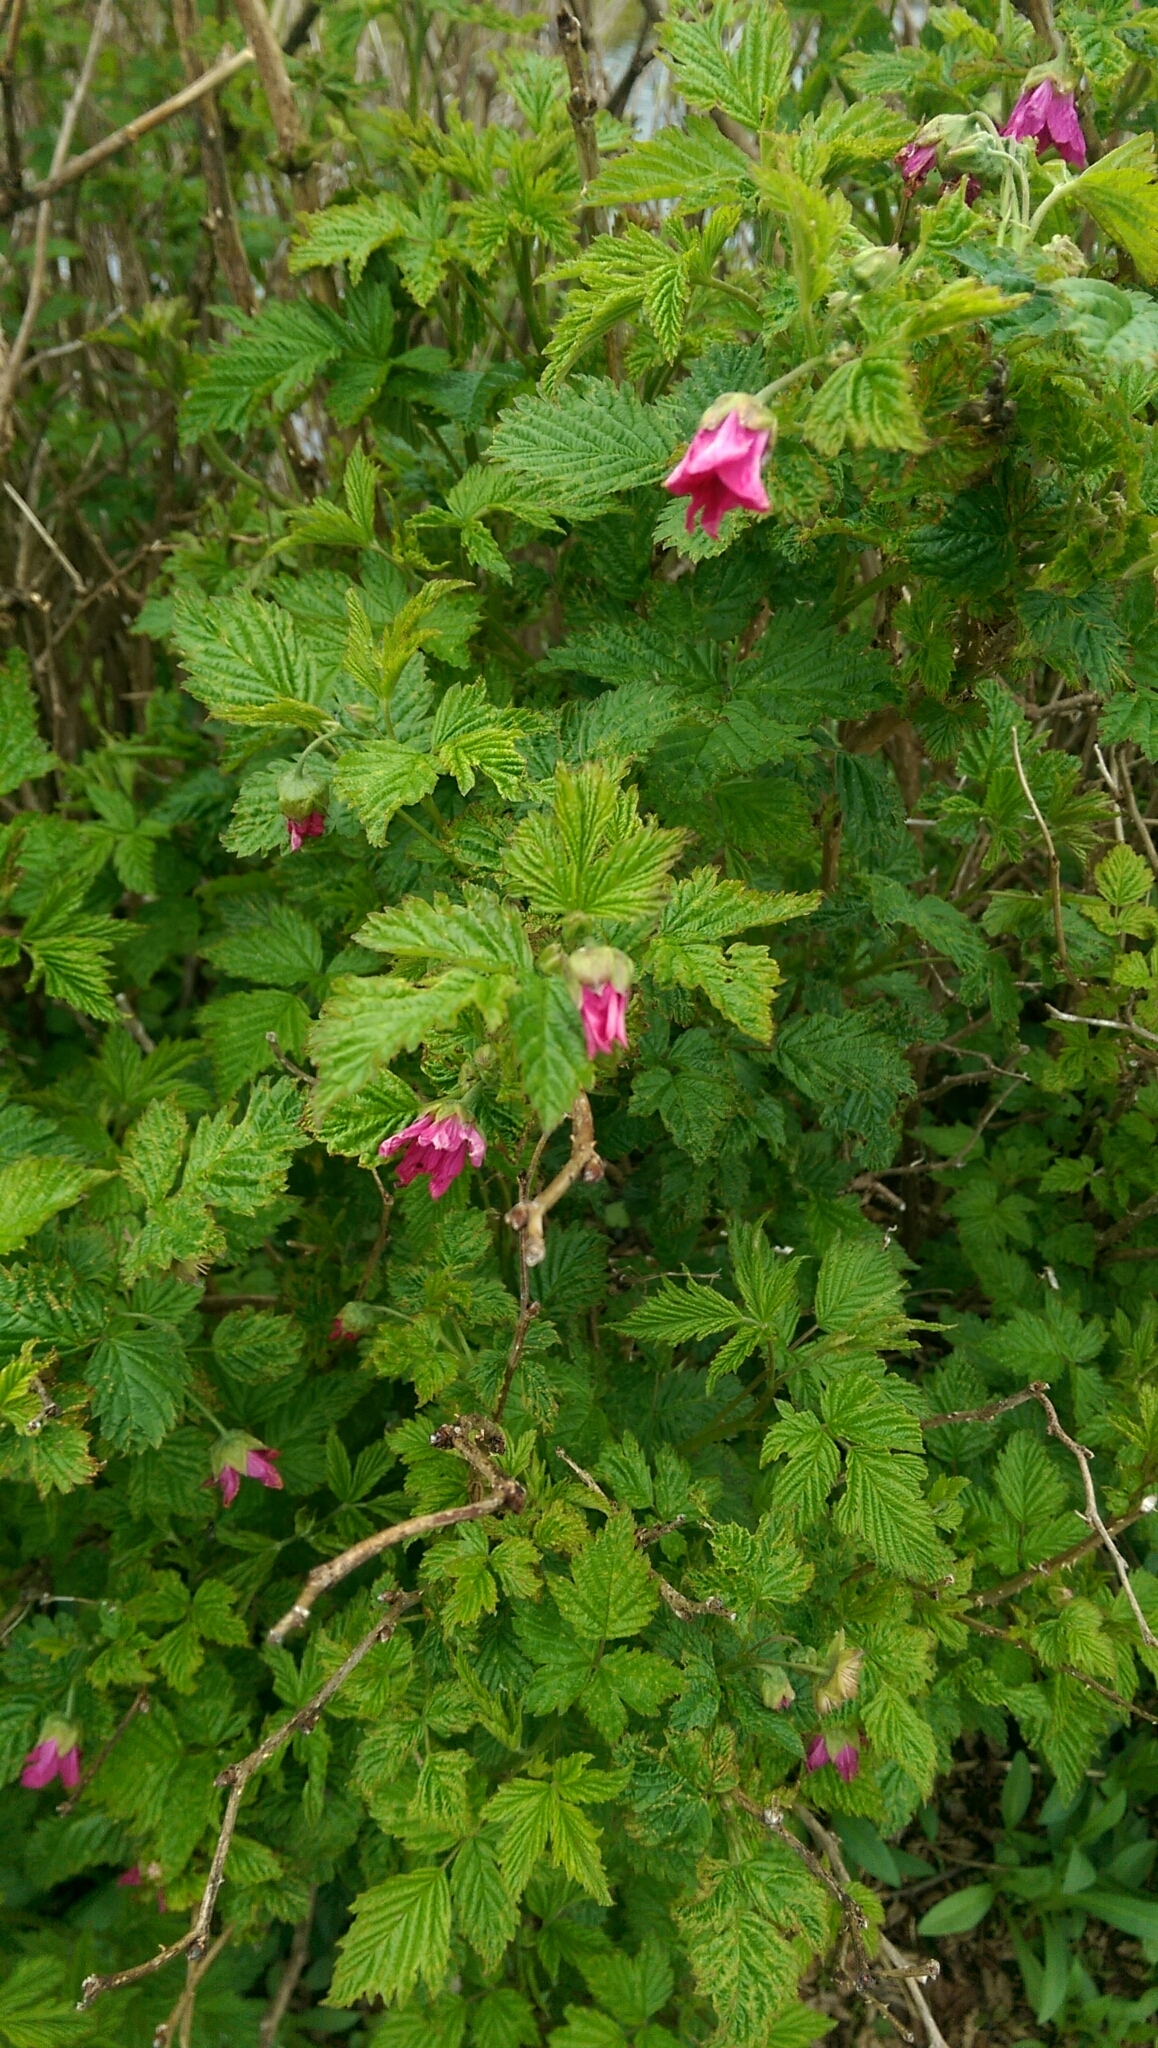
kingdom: Plantae
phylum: Tracheophyta
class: Magnoliopsida
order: Rosales
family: Rosaceae
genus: Rubus
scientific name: Rubus spectabilis
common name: Salmonberry
